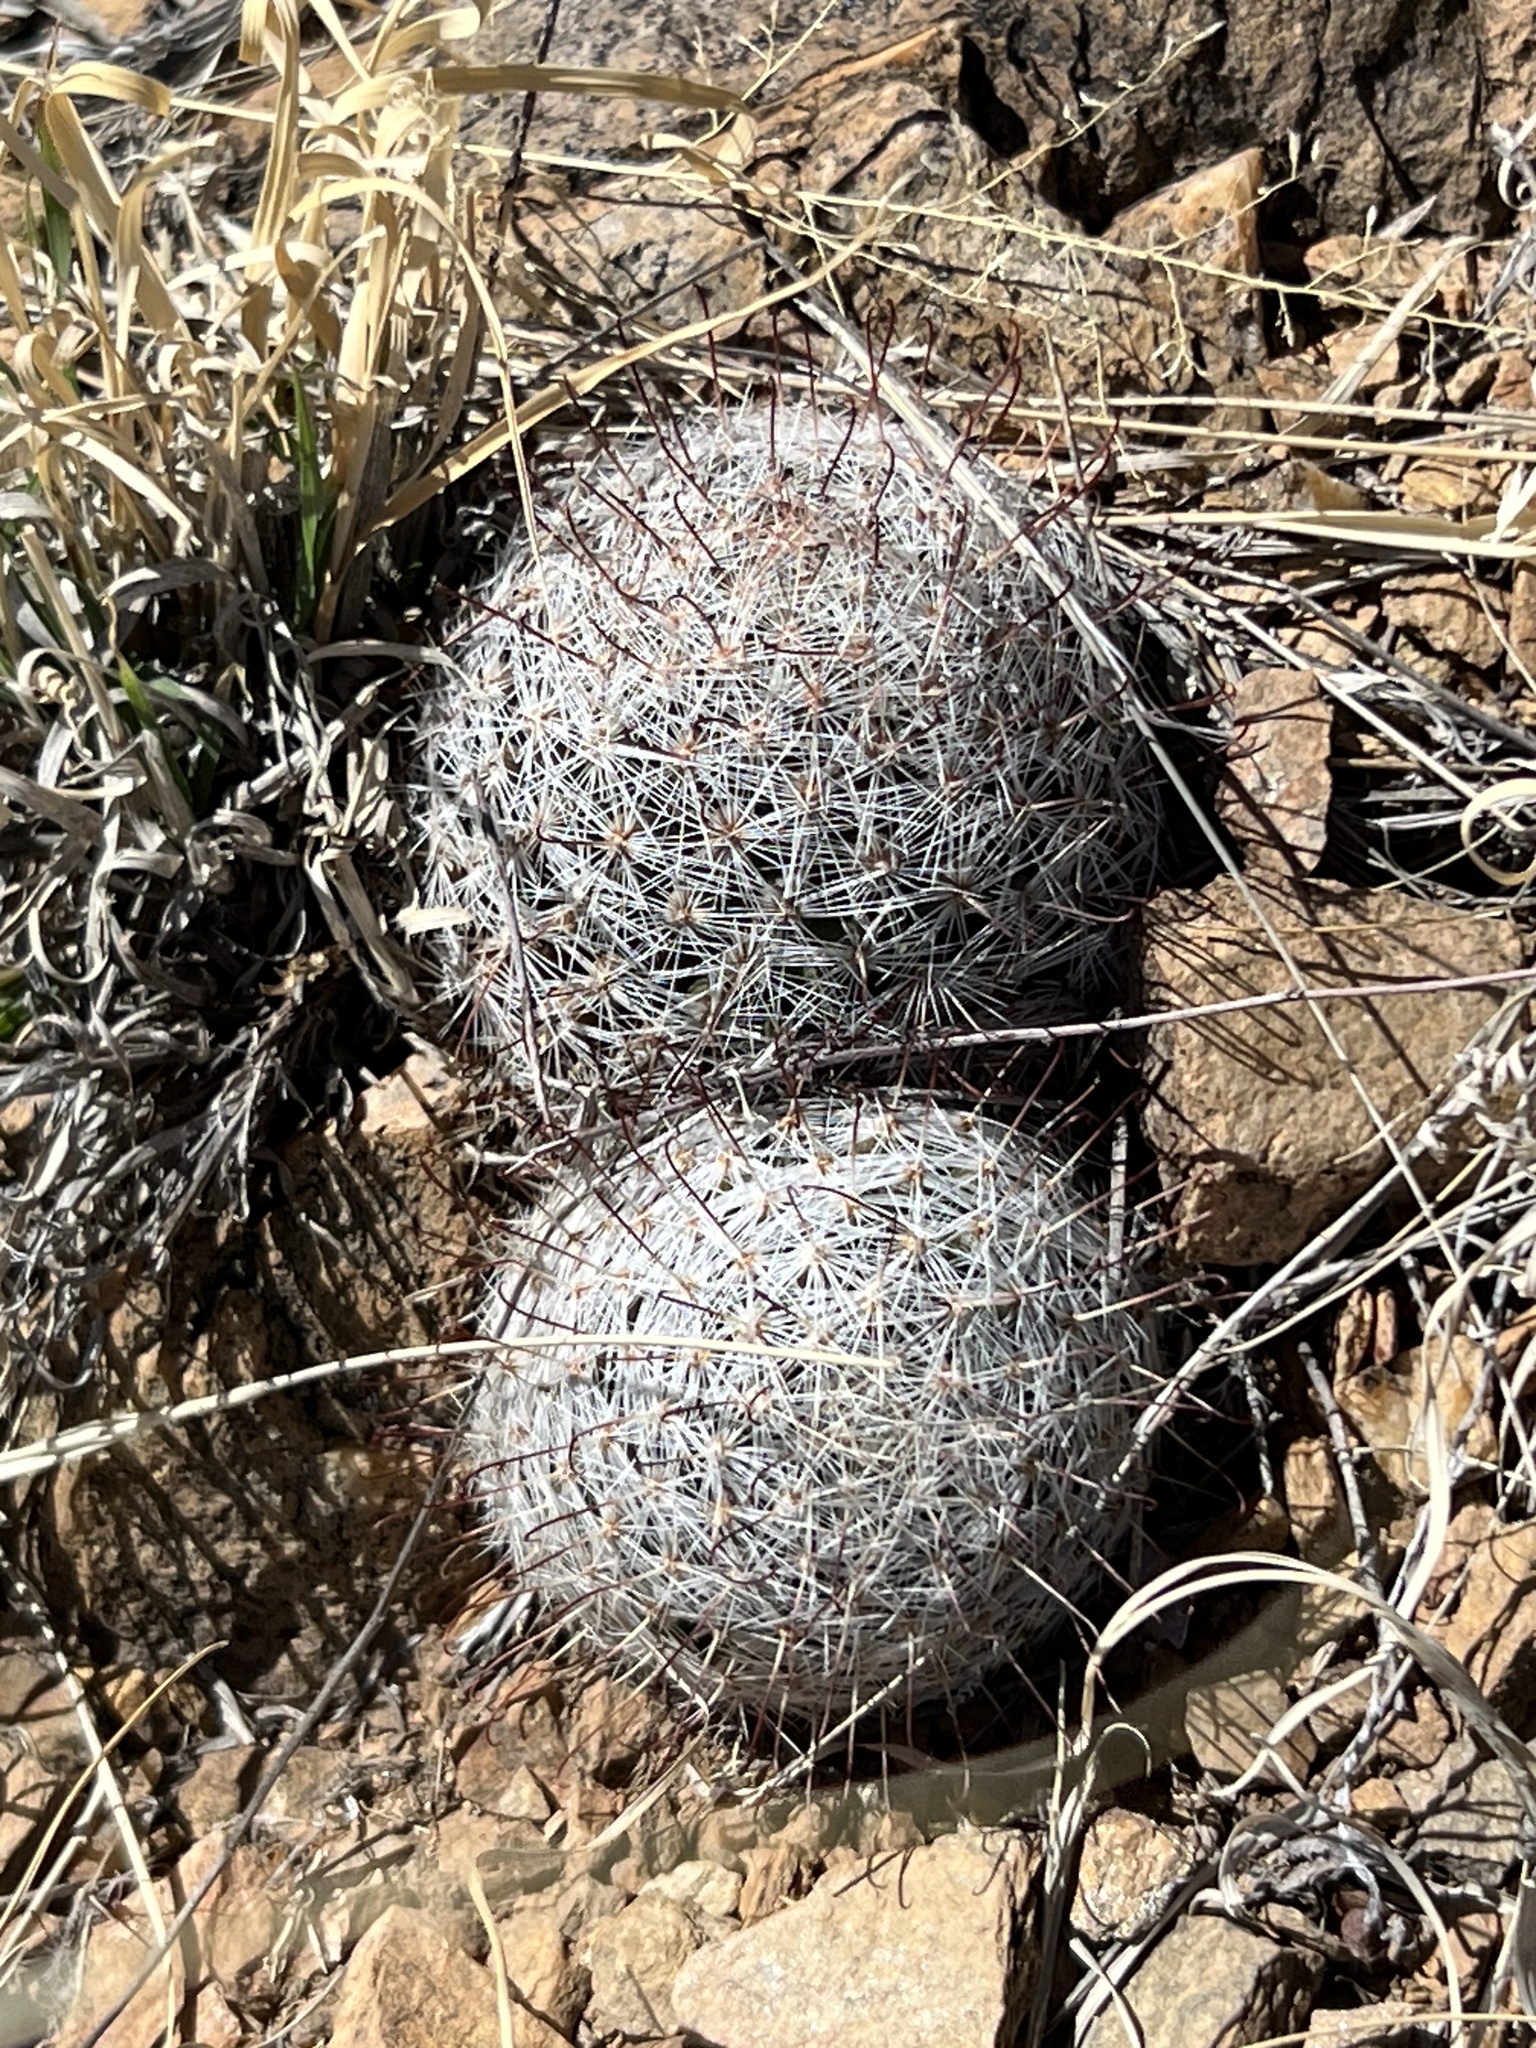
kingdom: Plantae
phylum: Tracheophyta
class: Magnoliopsida
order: Caryophyllales
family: Cactaceae
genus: Cochemiea
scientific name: Cochemiea grahamii
